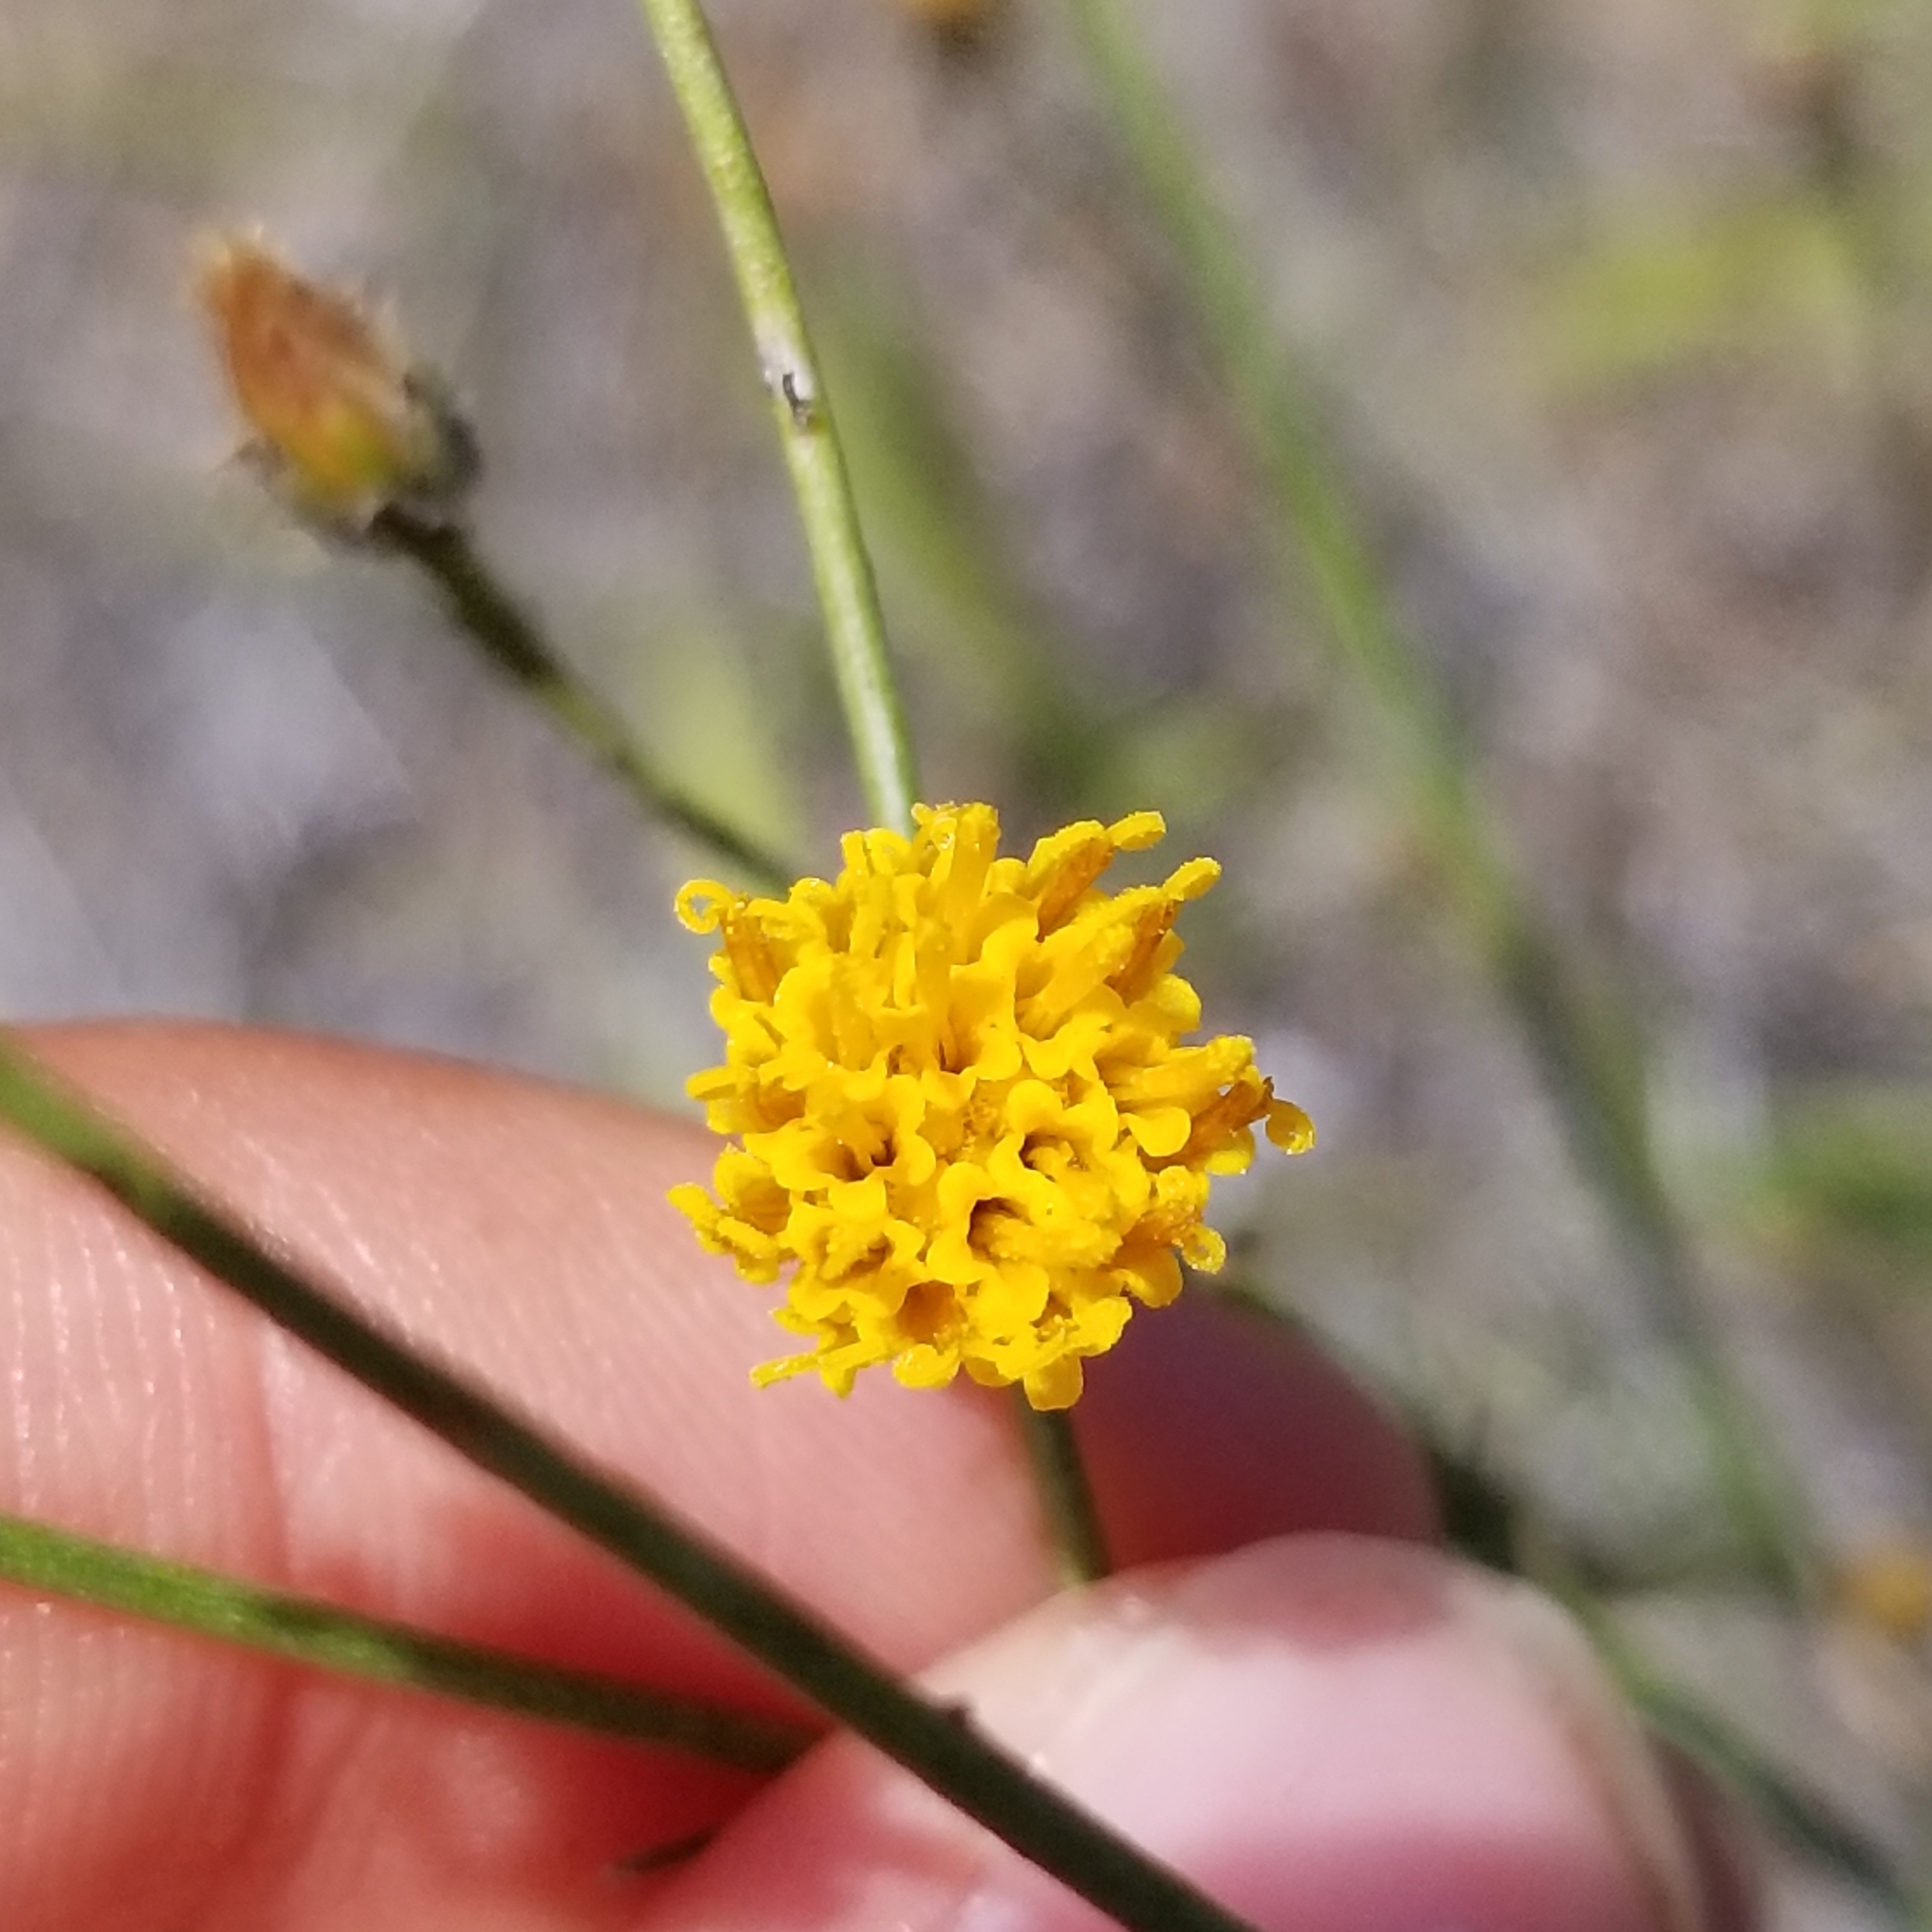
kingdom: Plantae
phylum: Tracheophyta
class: Magnoliopsida
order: Asterales
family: Asteraceae
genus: Bebbia
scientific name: Bebbia juncea
